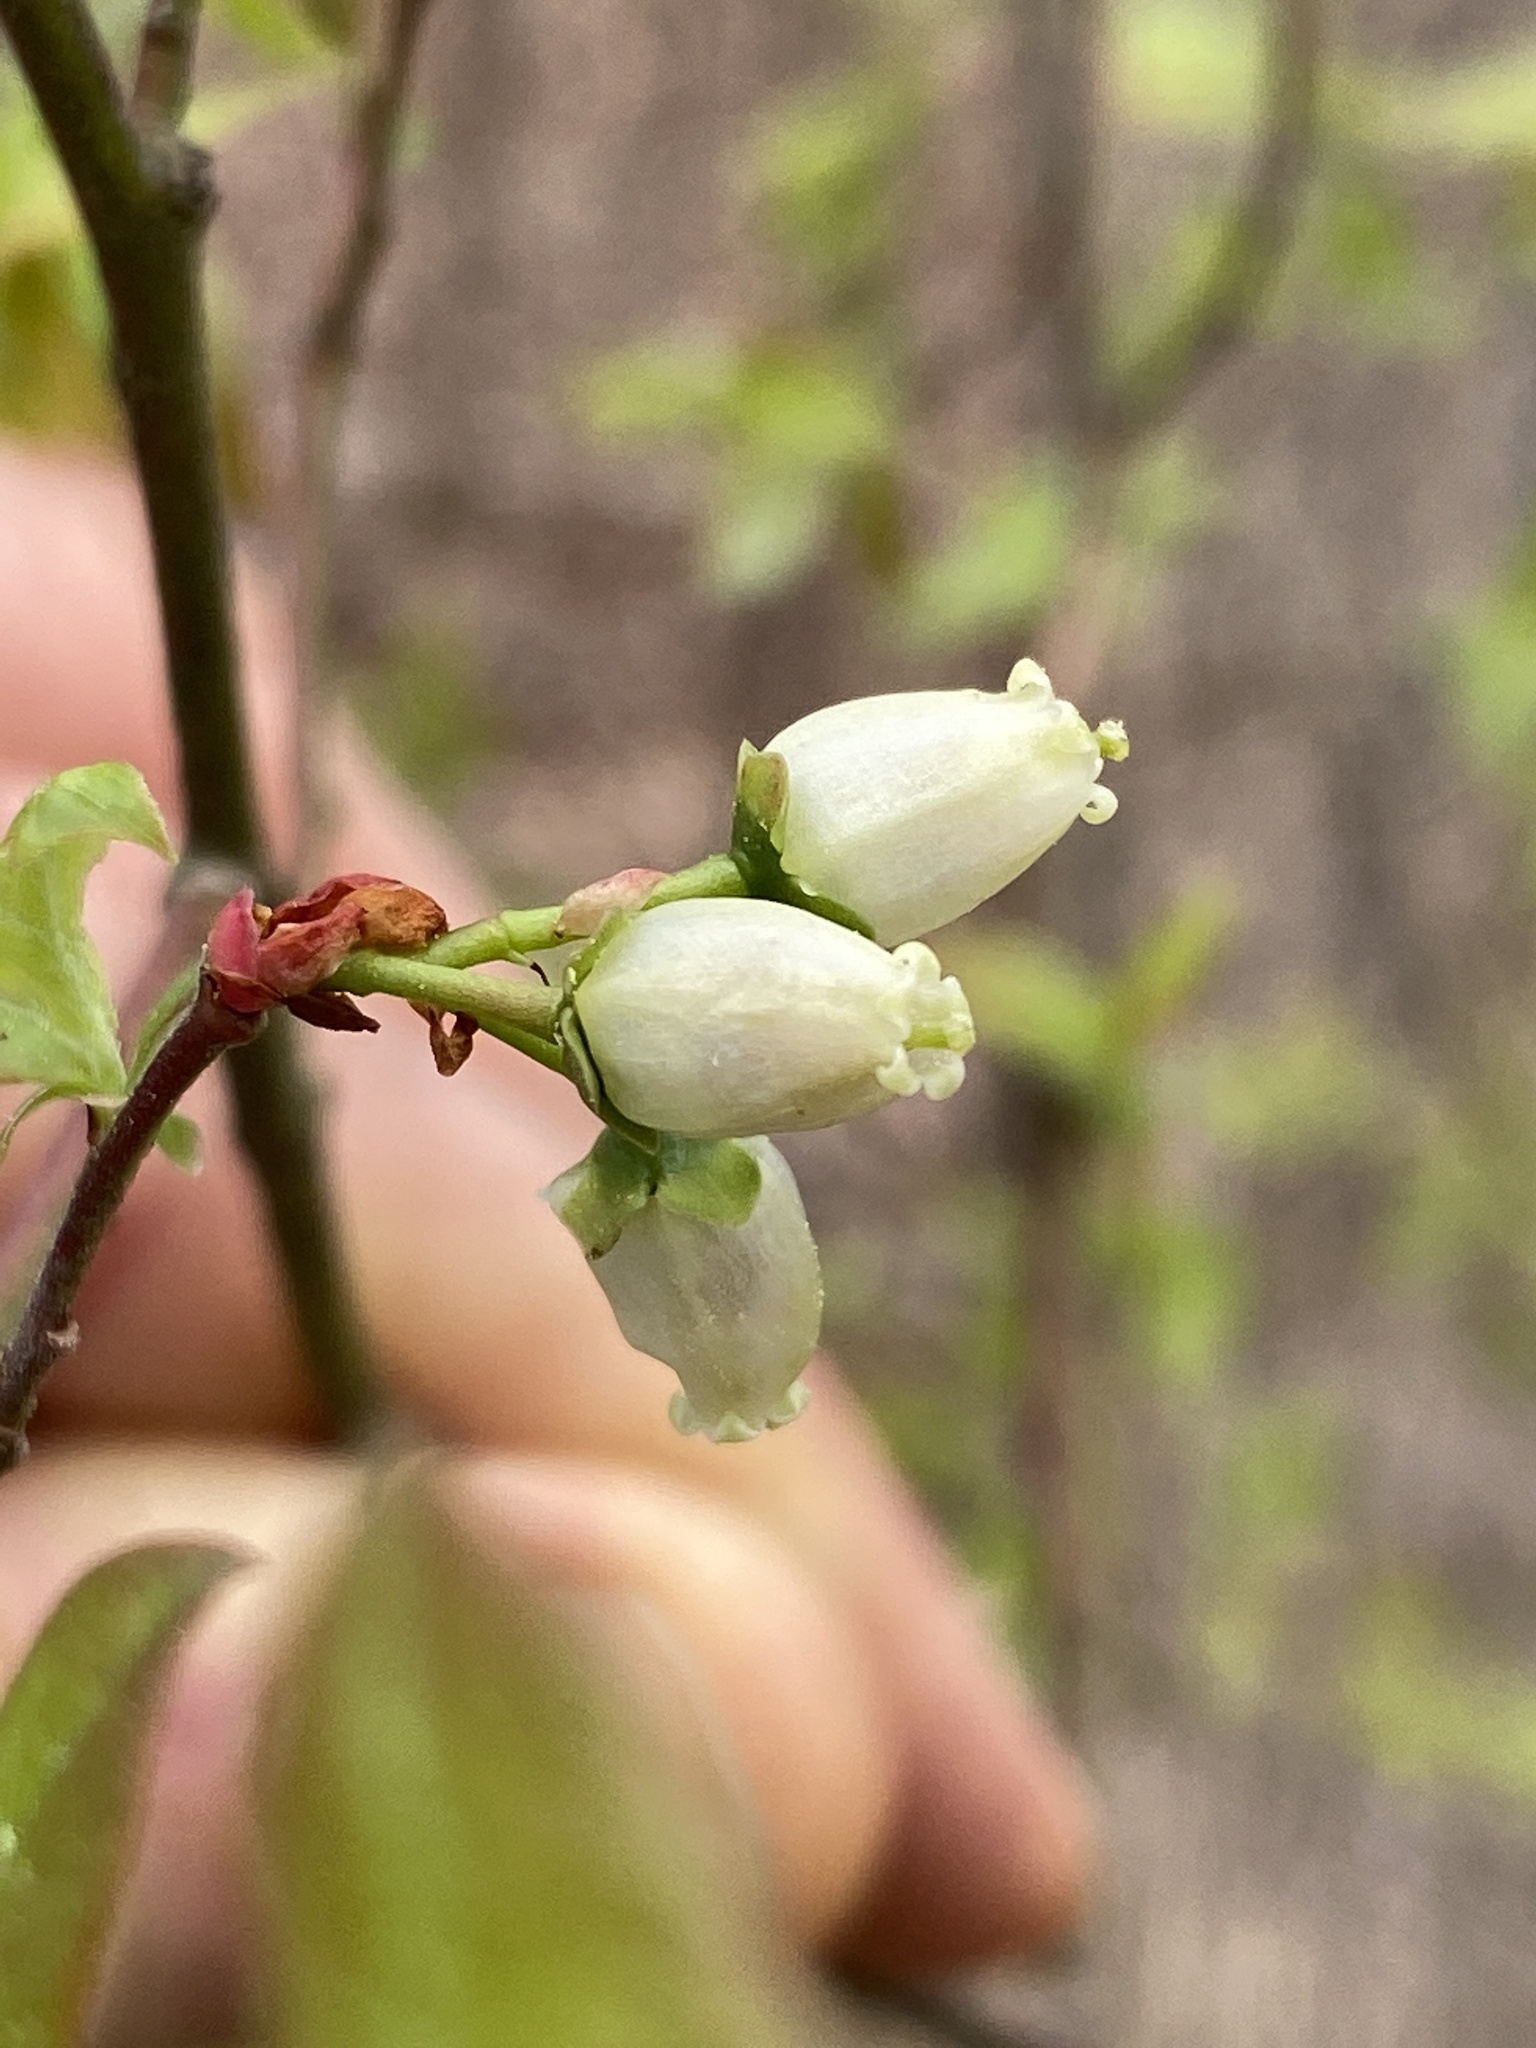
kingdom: Plantae
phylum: Tracheophyta
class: Magnoliopsida
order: Ericales
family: Ericaceae
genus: Vaccinium
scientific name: Vaccinium corymbosum
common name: Blueberry
